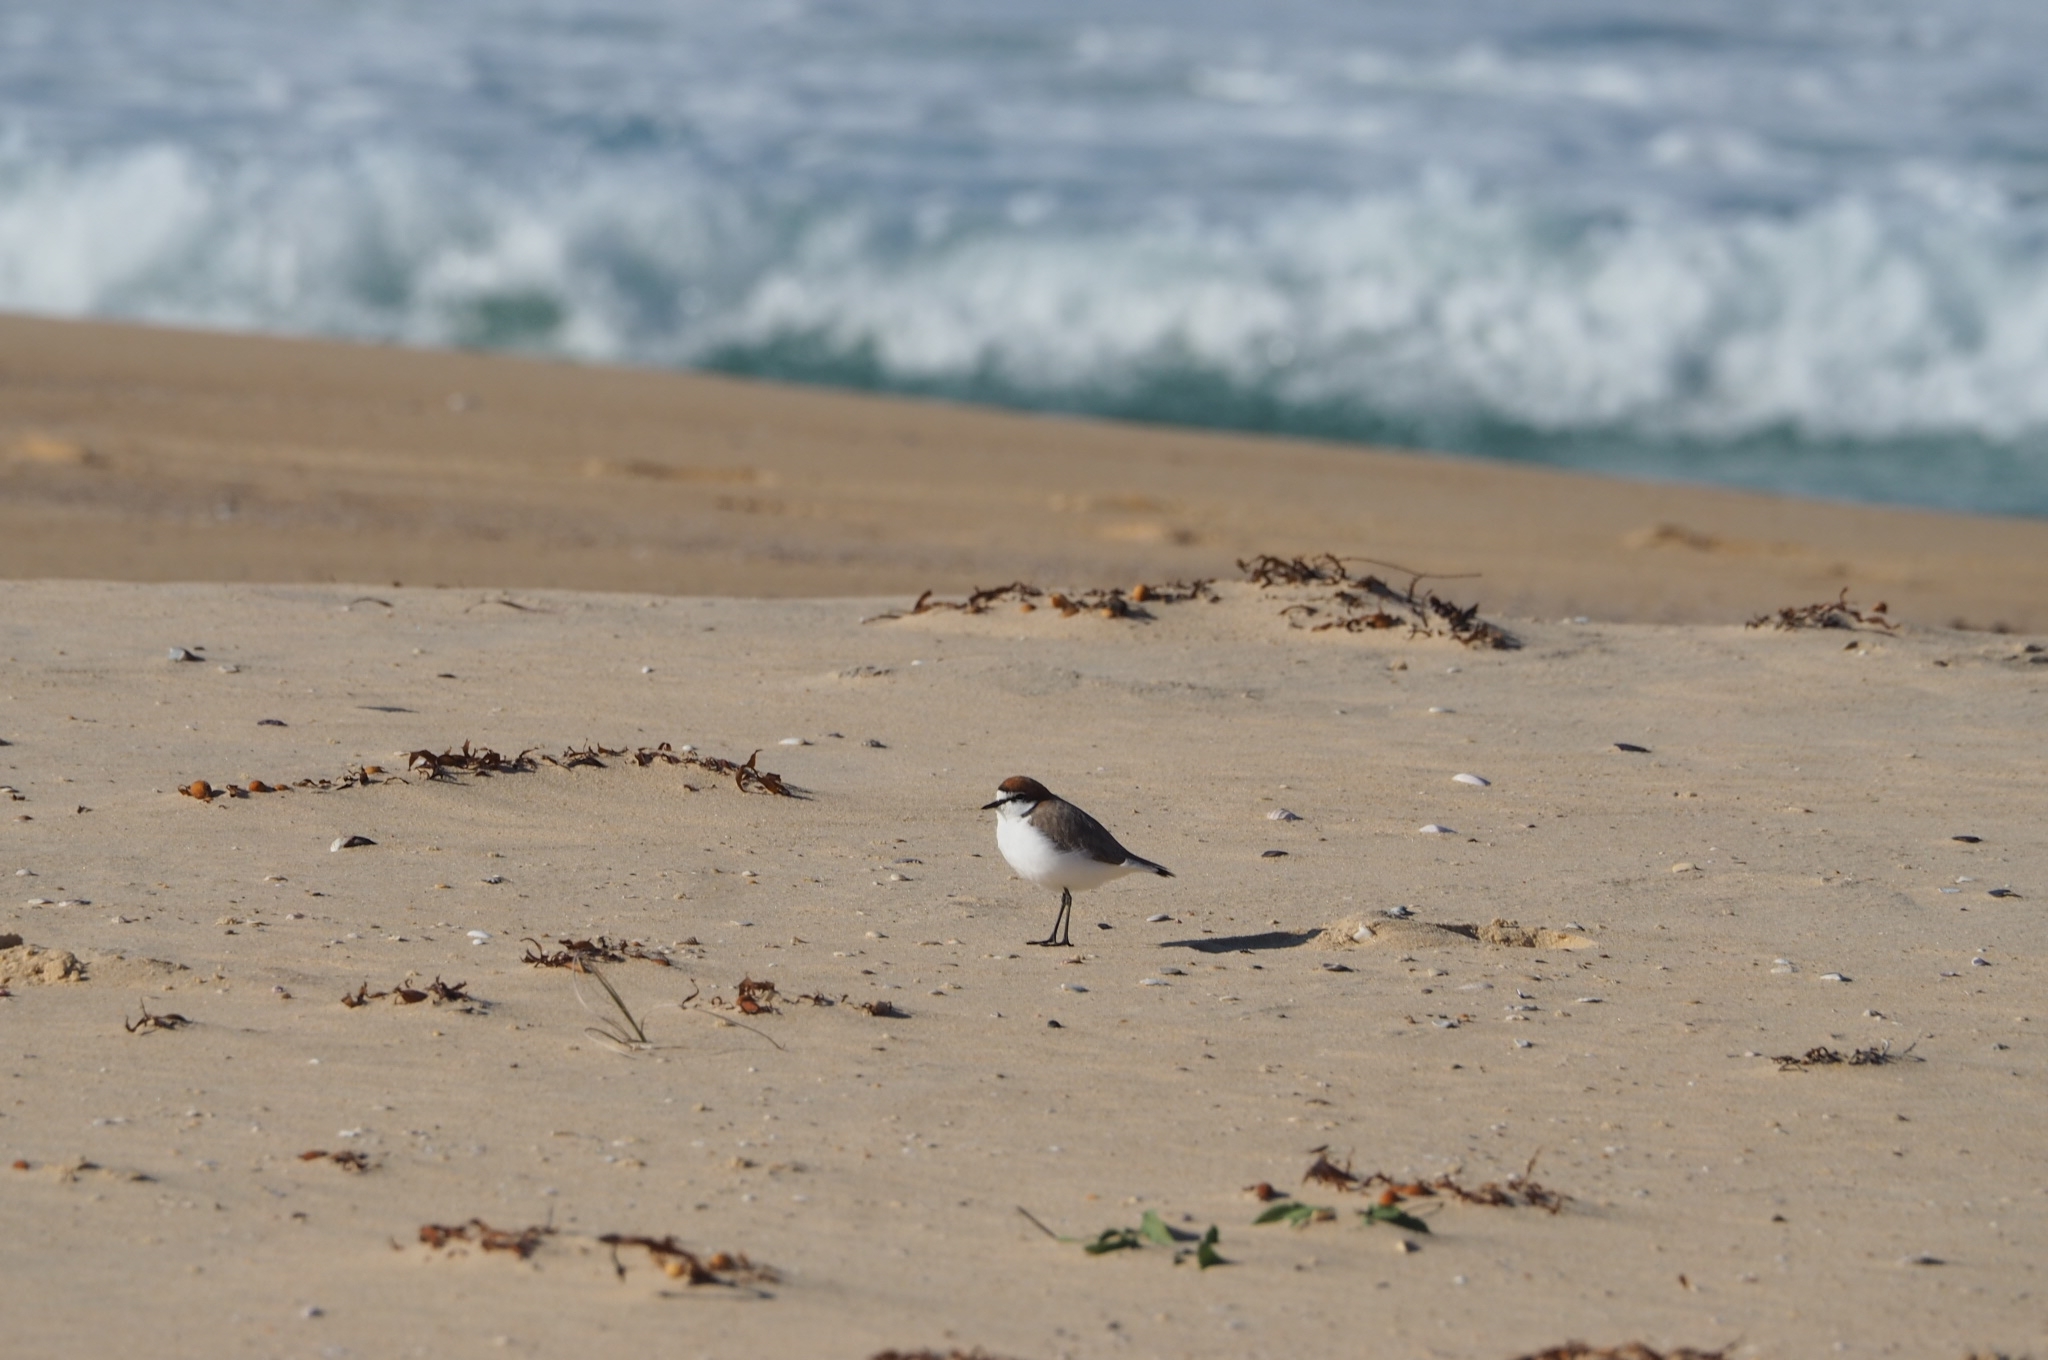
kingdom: Animalia
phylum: Chordata
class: Aves
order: Charadriiformes
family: Charadriidae
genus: Anarhynchus
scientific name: Anarhynchus
